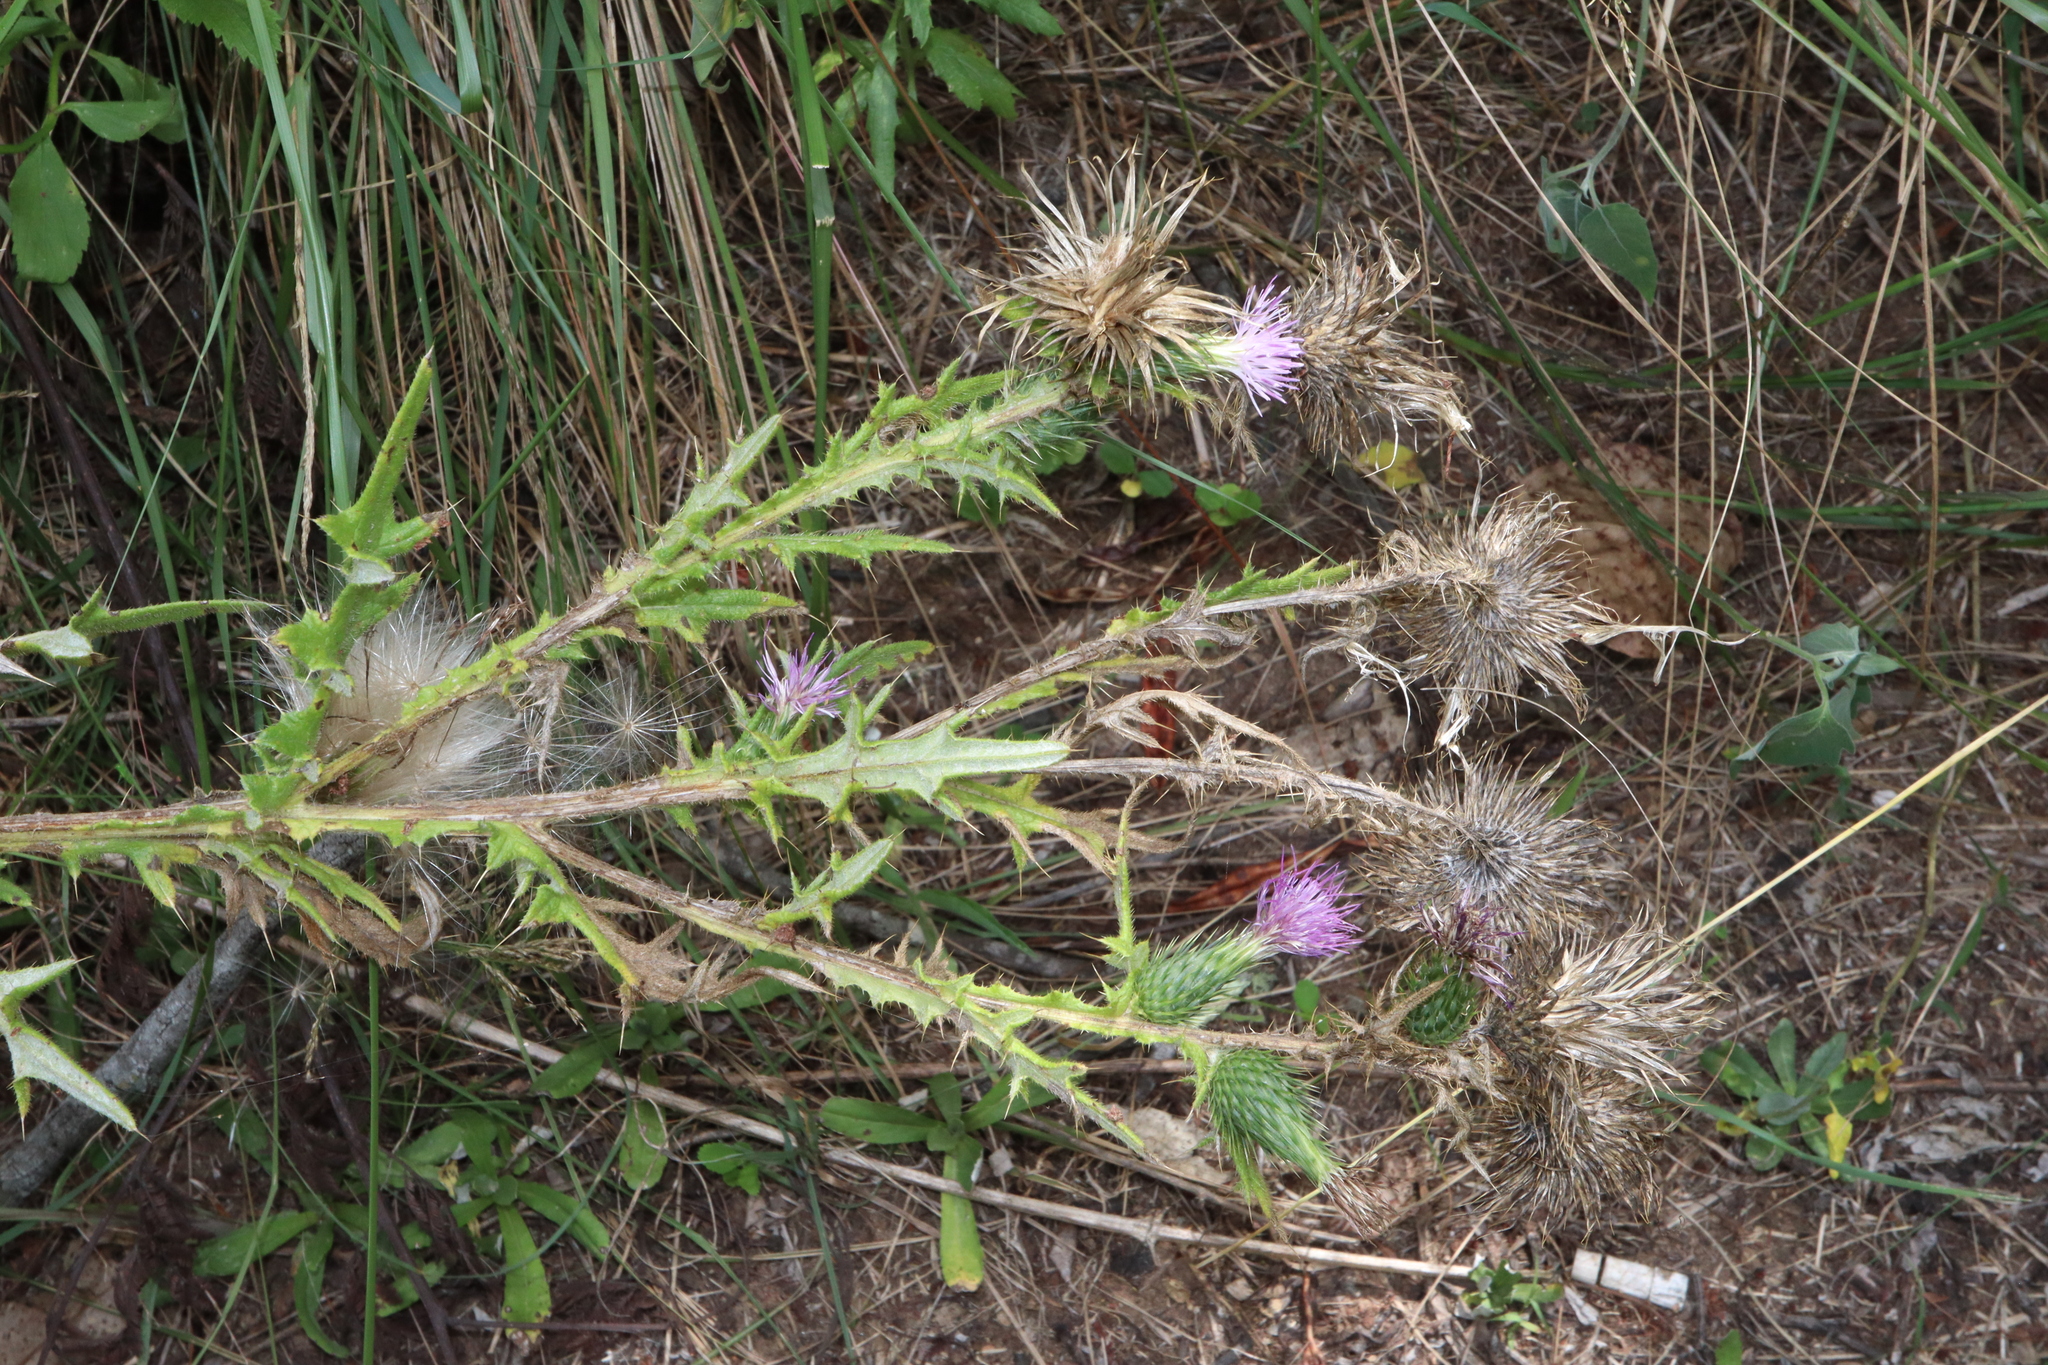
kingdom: Plantae
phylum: Tracheophyta
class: Magnoliopsida
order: Asterales
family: Asteraceae
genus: Carduus
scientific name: Carduus pycnocephalus
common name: Plymouth thistle
